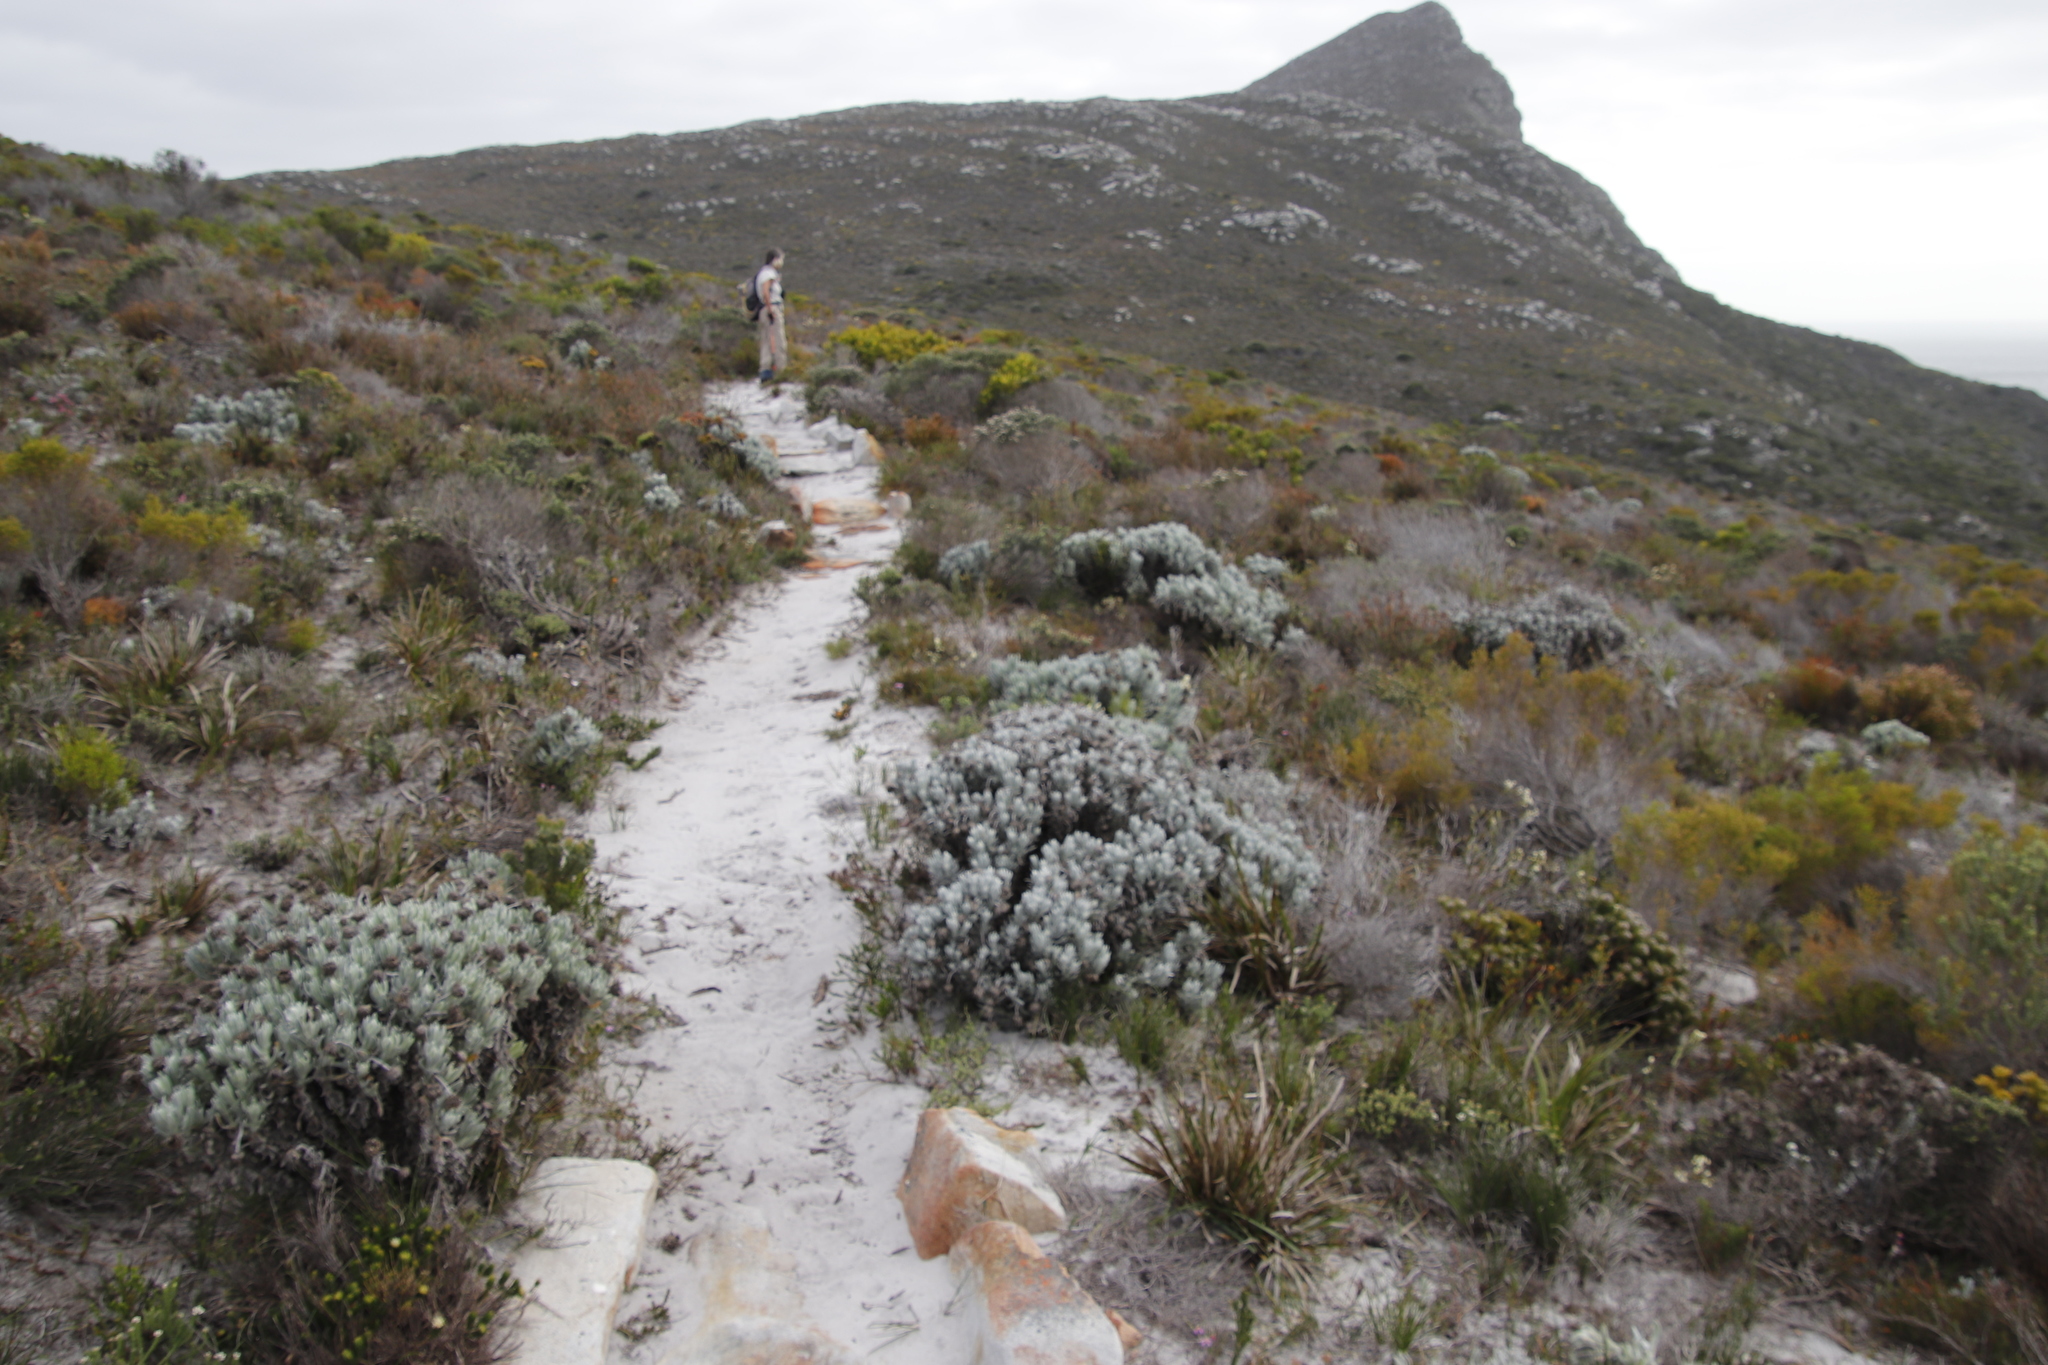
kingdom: Plantae
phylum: Tracheophyta
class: Magnoliopsida
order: Asterales
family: Asteraceae
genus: Syncarpha
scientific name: Syncarpha vestita
